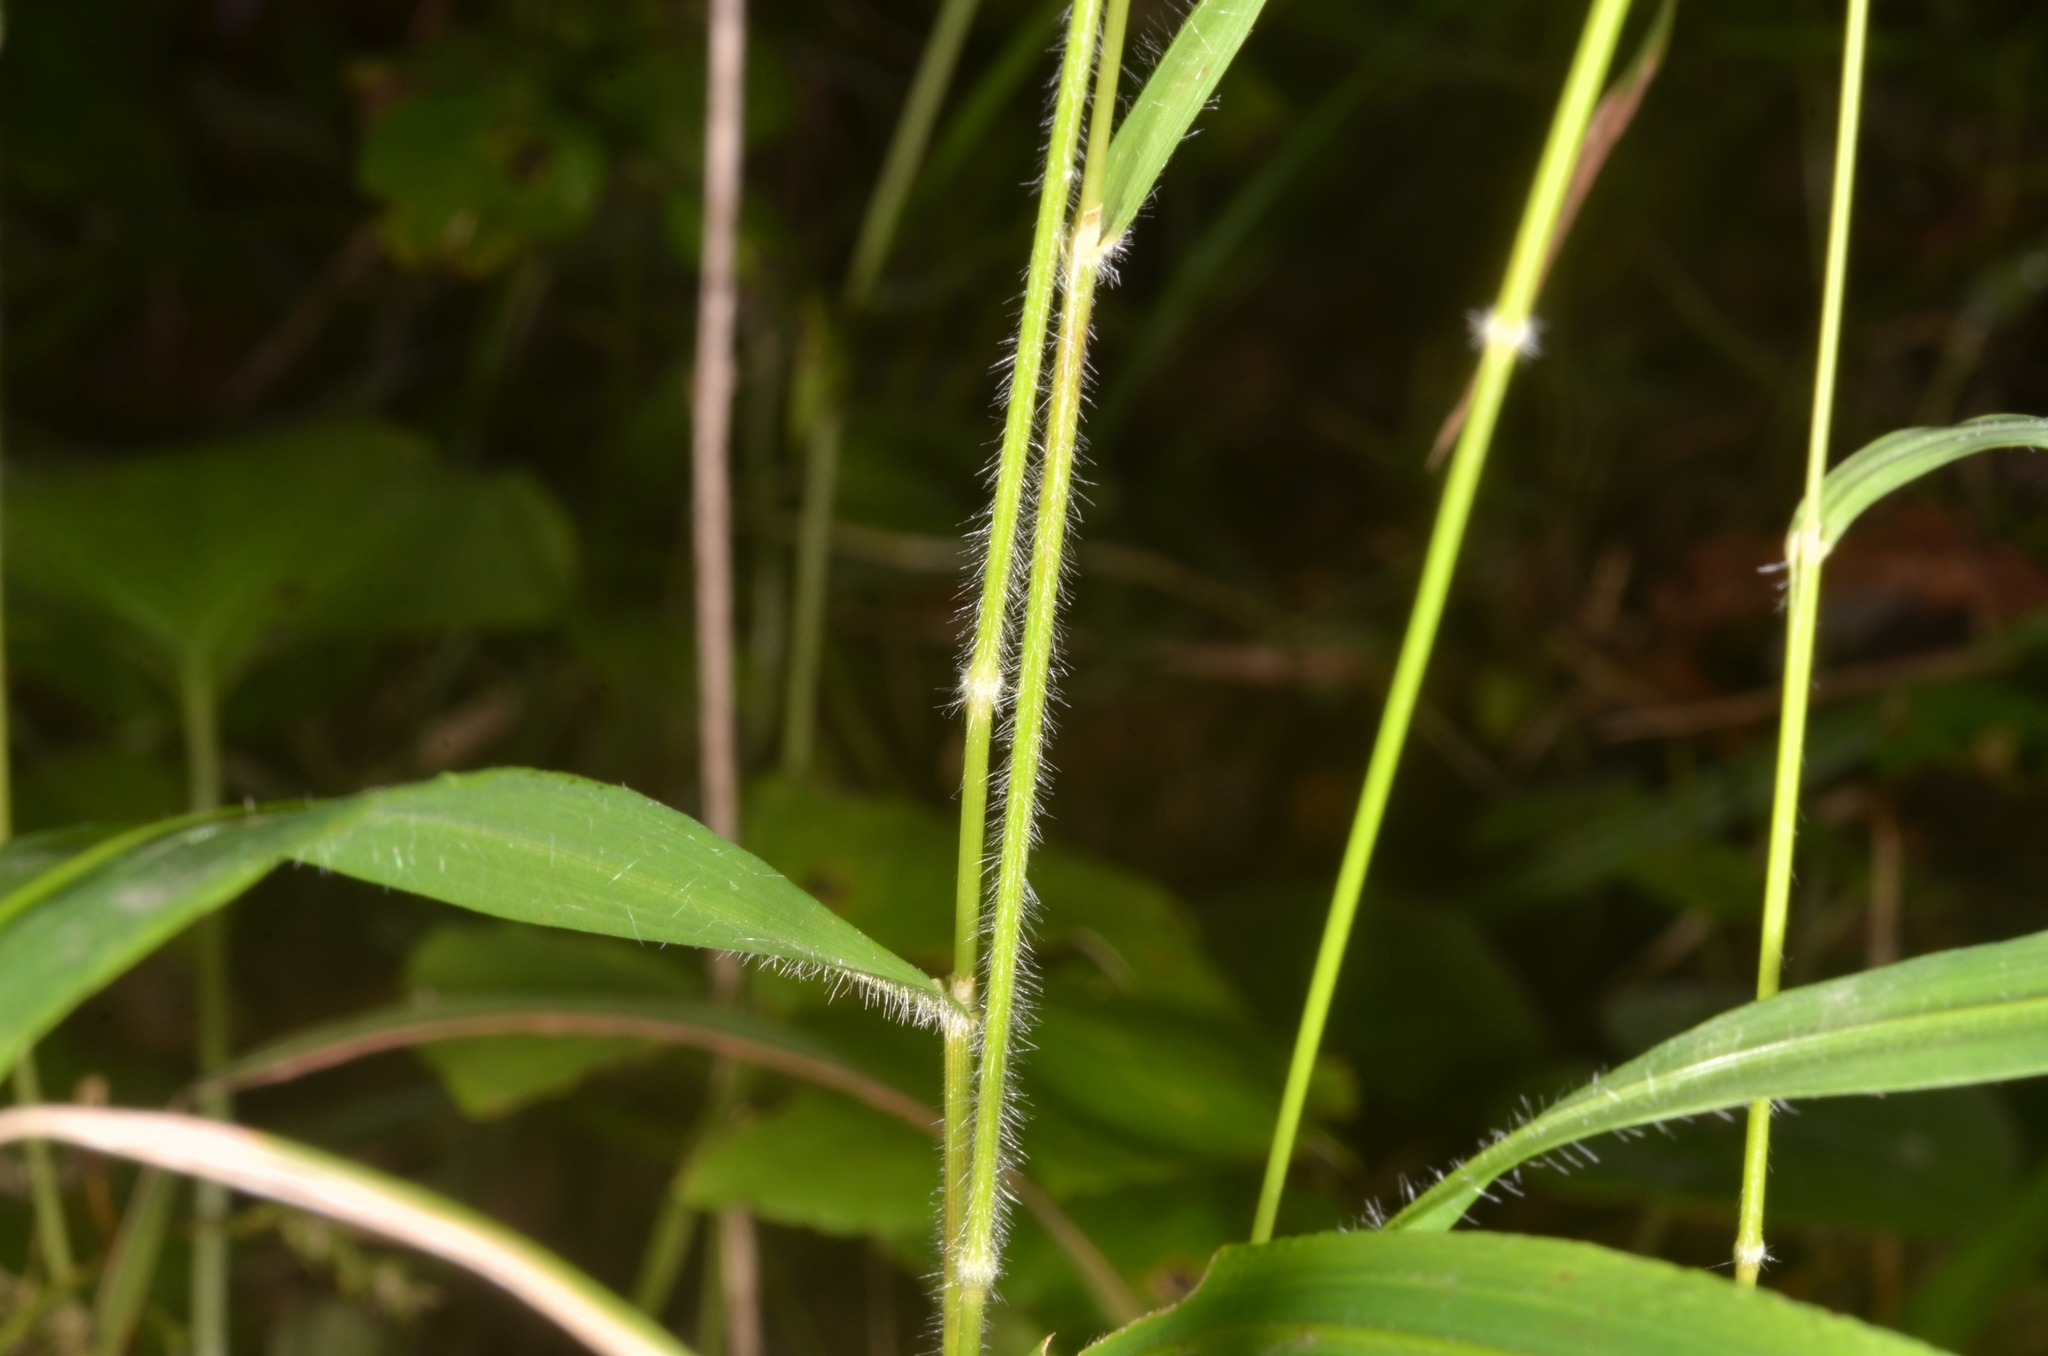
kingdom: Plantae
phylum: Tracheophyta
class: Liliopsida
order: Poales
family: Poaceae
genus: Brachypodium
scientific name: Brachypodium sylvaticum
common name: False-brome
